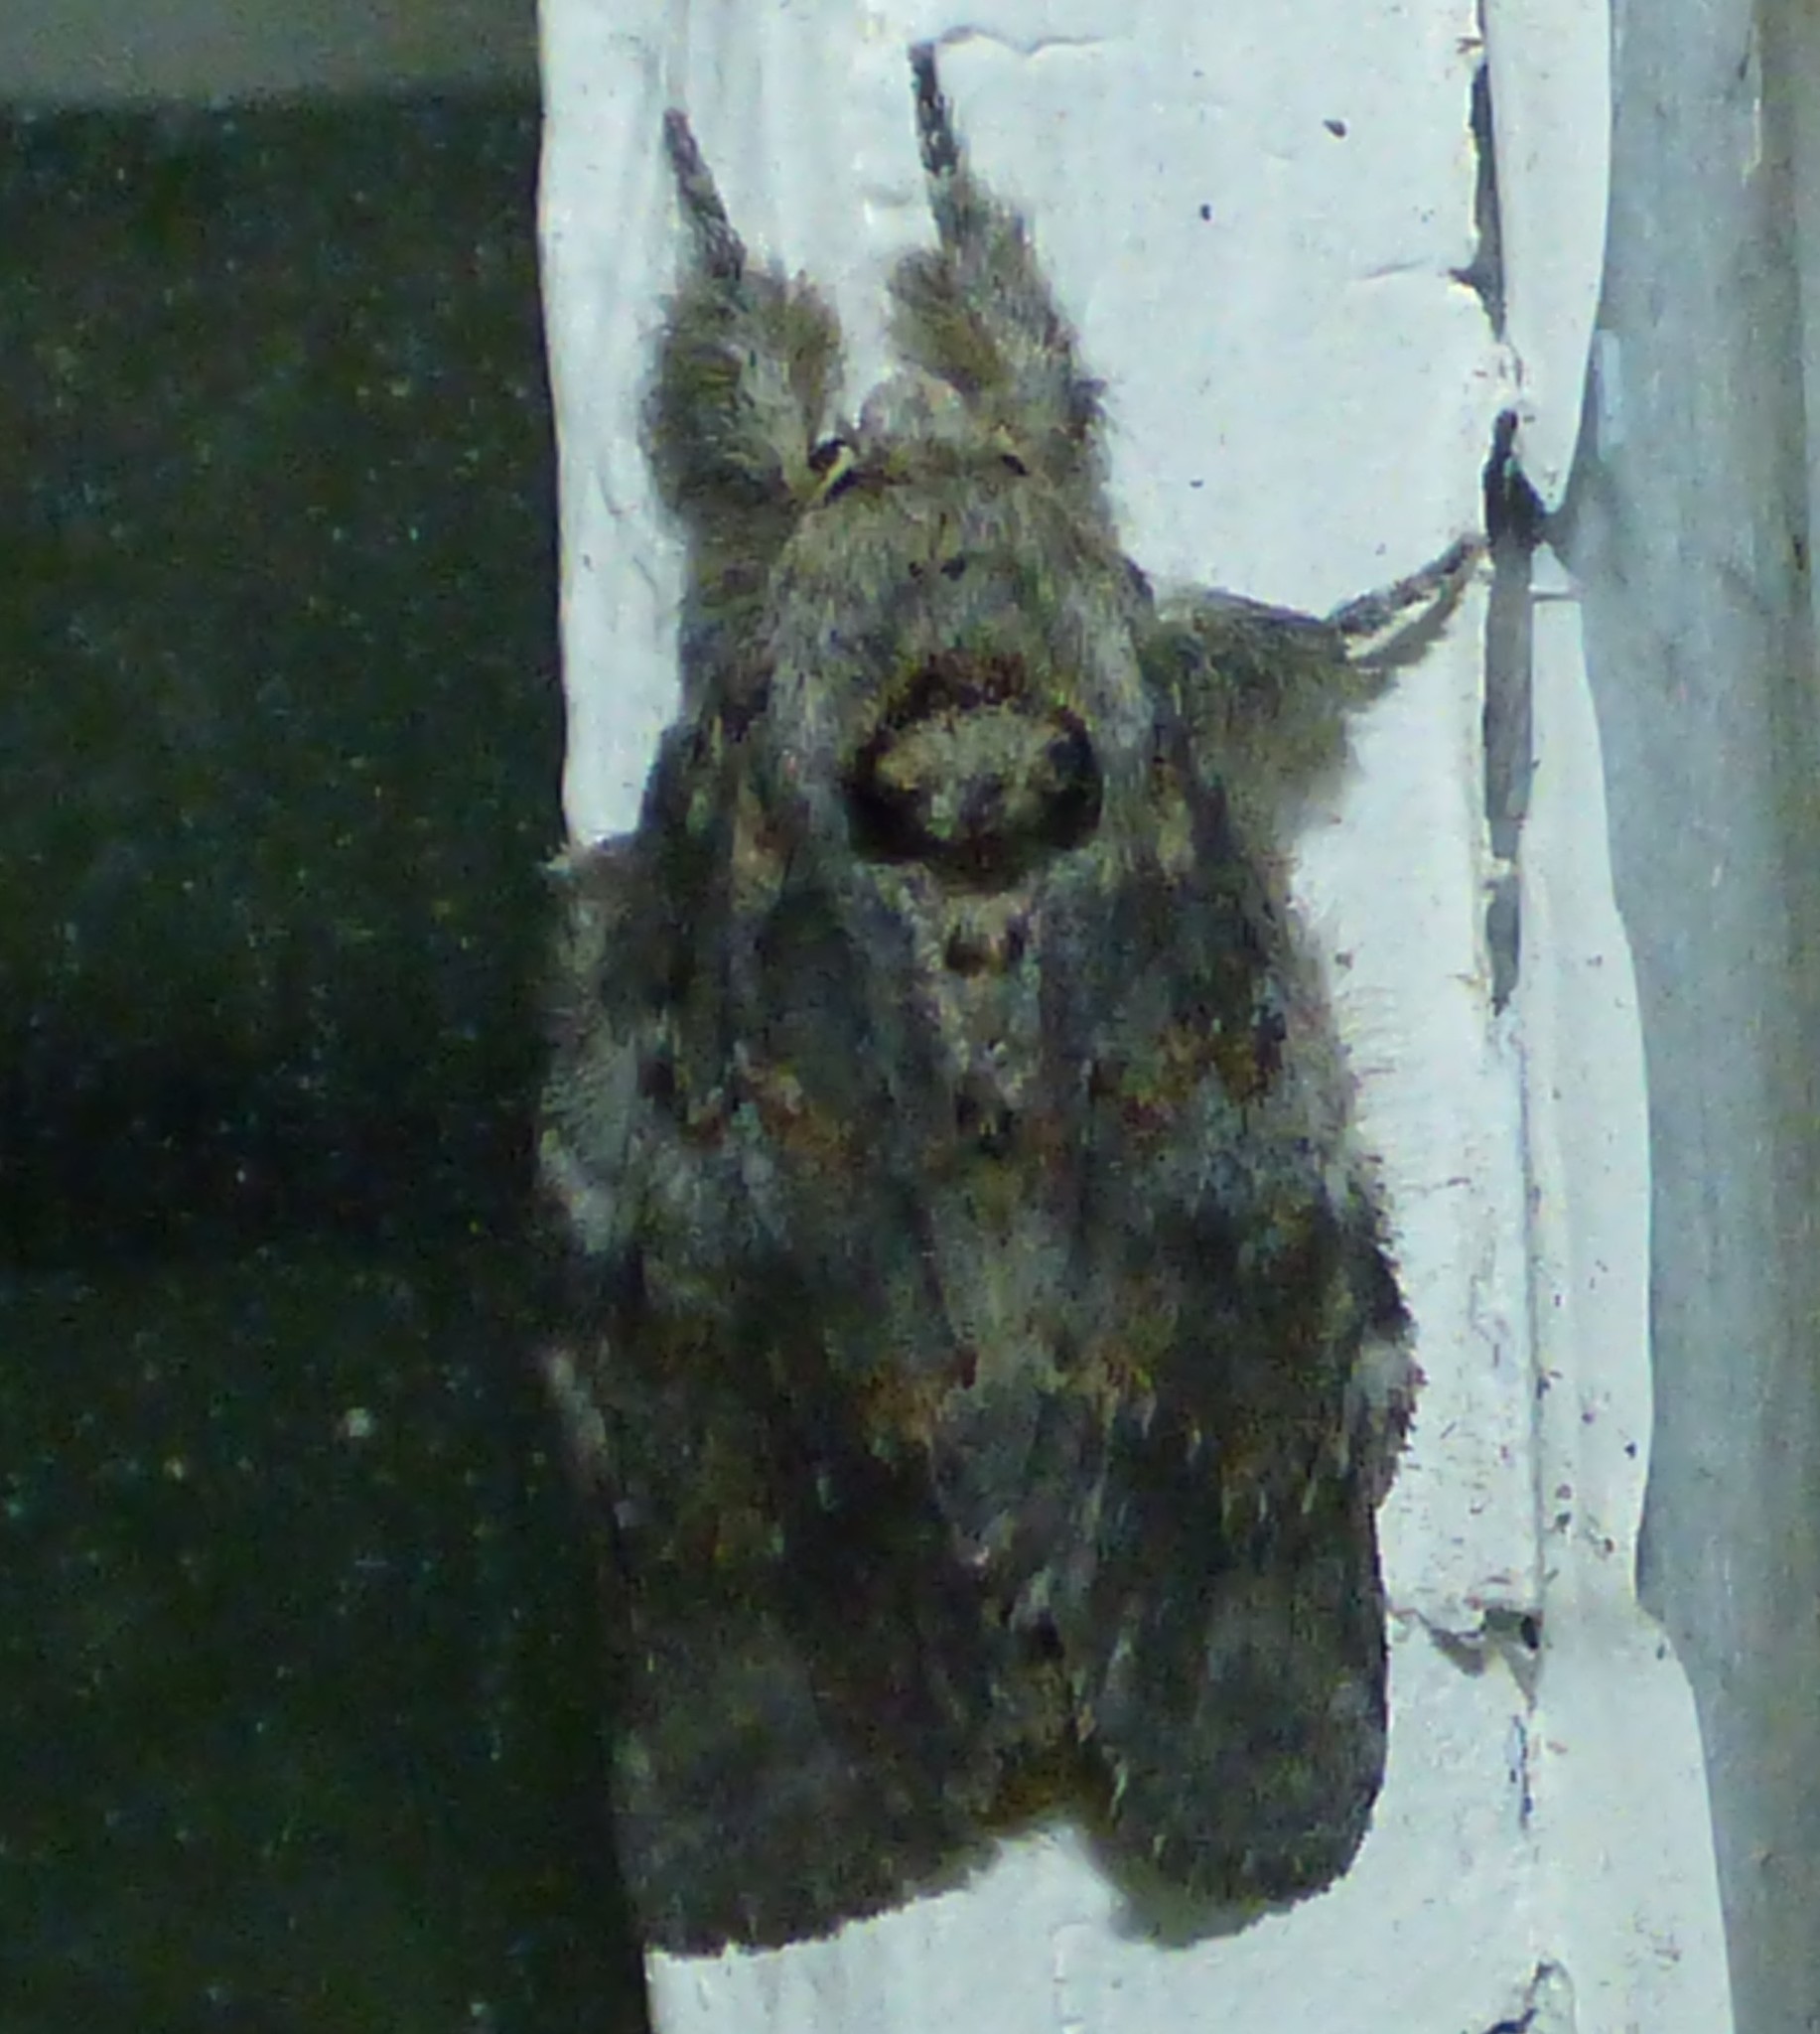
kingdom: Animalia
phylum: Arthropoda
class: Insecta
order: Lepidoptera
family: Notodontidae
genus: Peridea
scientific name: Peridea angulosa
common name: Angulose prominent
